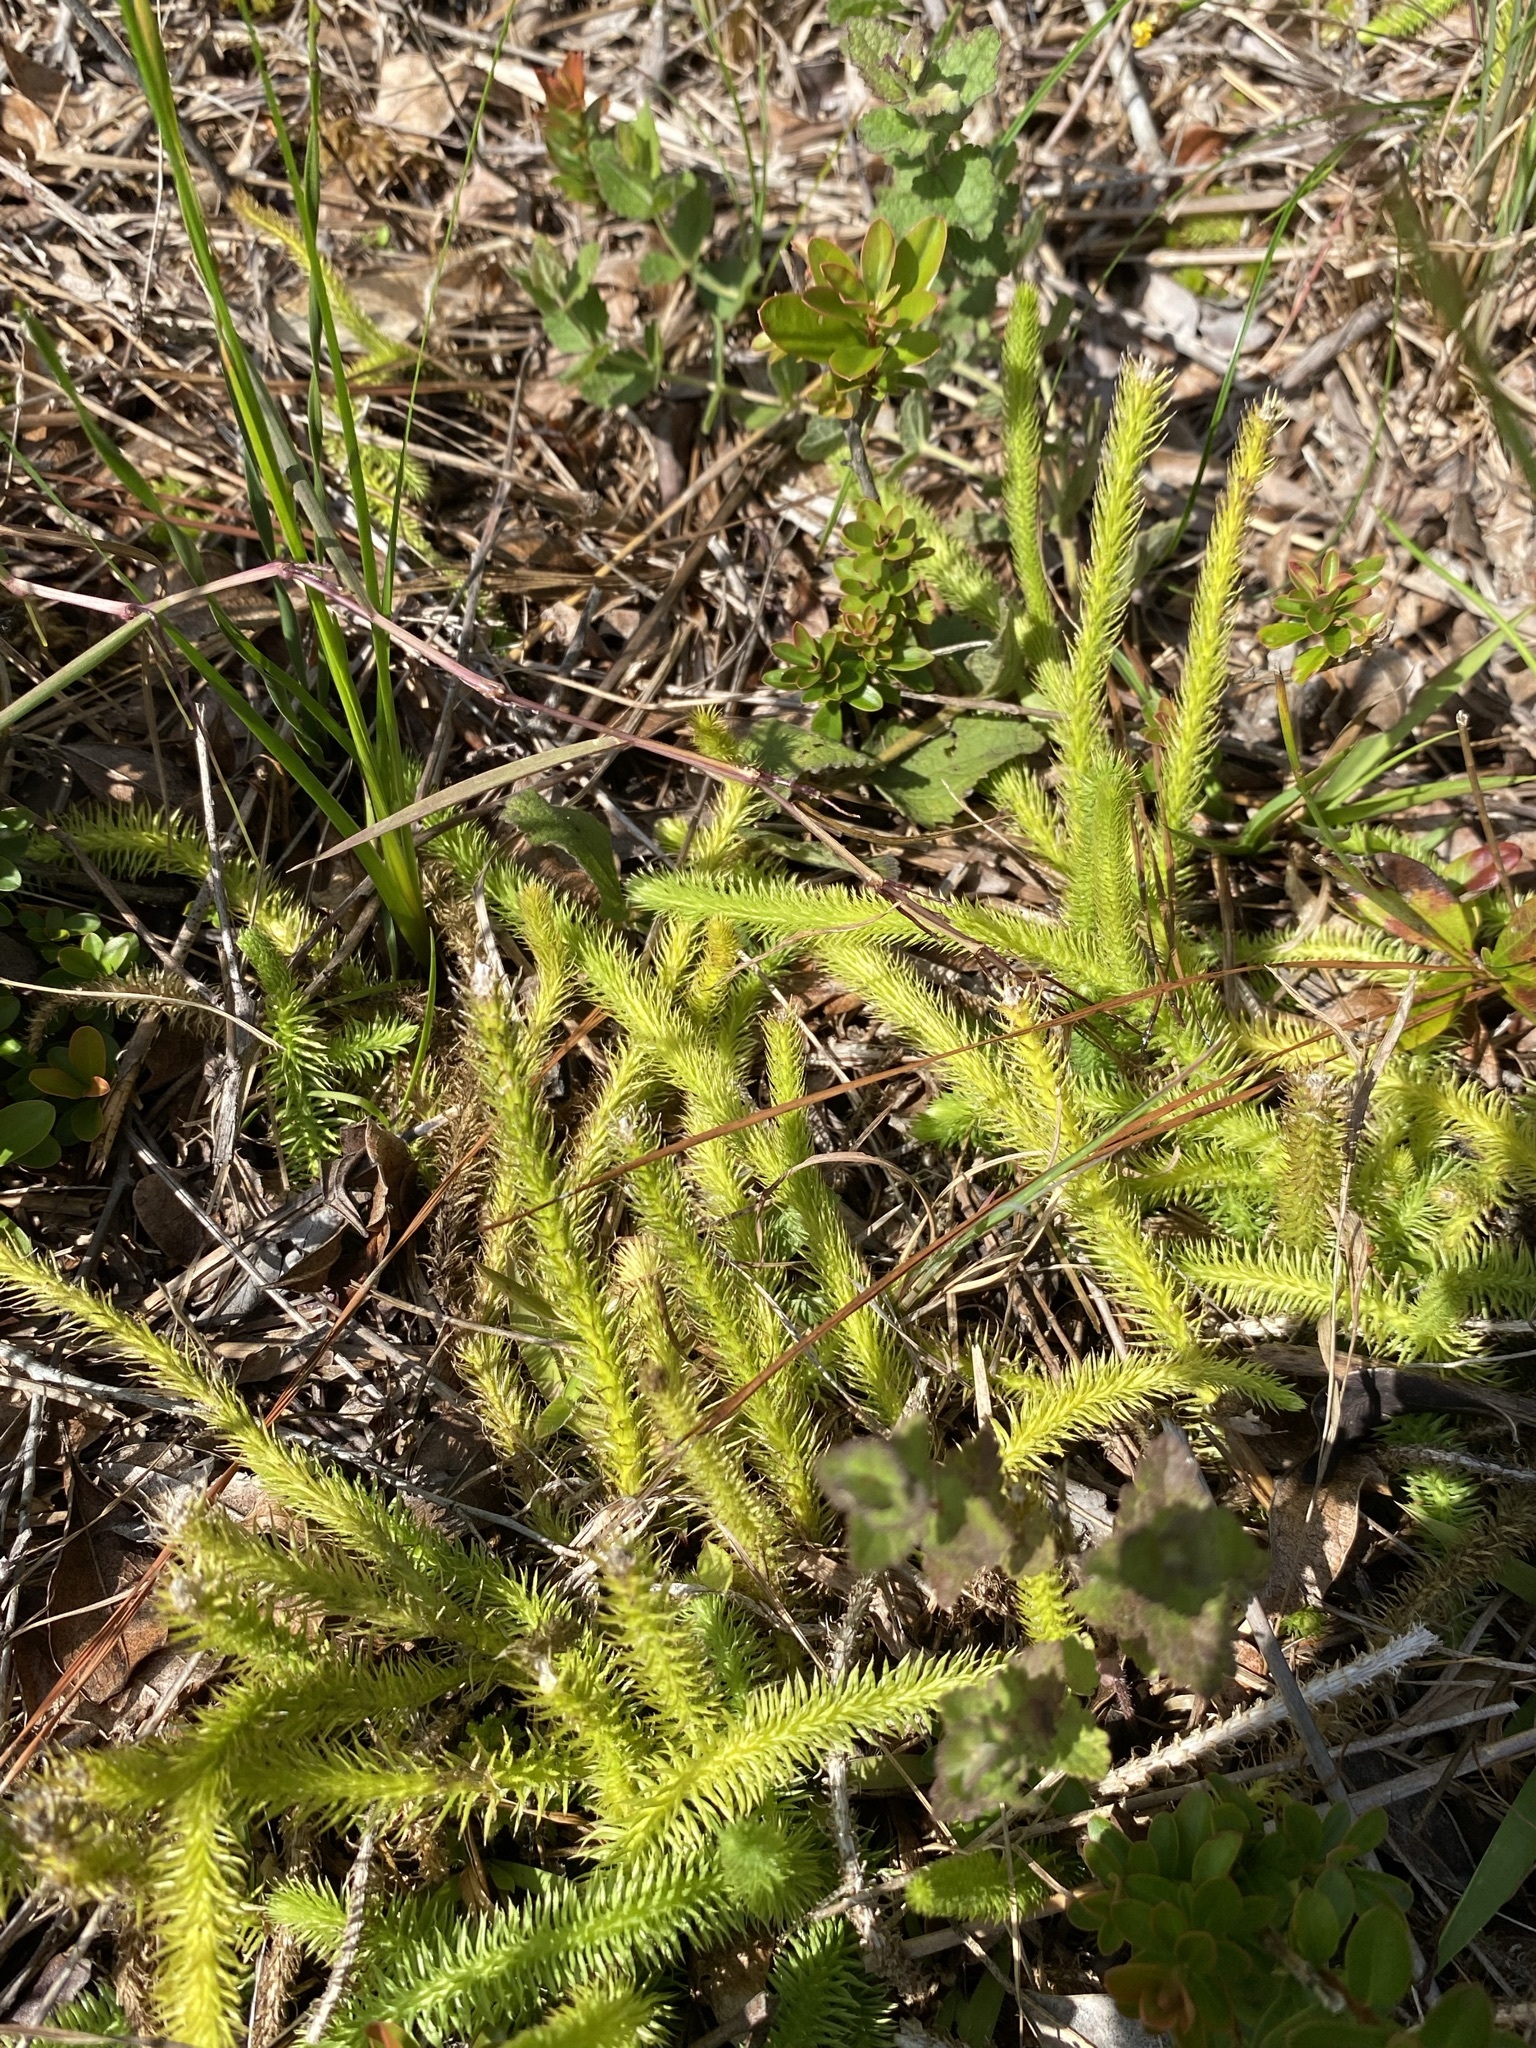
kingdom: Plantae
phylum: Tracheophyta
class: Lycopodiopsida
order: Lycopodiales
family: Lycopodiaceae
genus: Lycopodiella
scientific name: Lycopodiella alopecuroides
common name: Foxtail clubmoss
